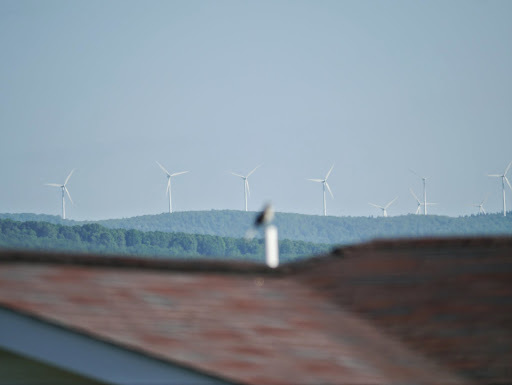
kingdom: Animalia
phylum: Chordata
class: Aves
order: Passeriformes
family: Mimidae
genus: Mimus
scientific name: Mimus polyglottos
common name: Northern mockingbird
